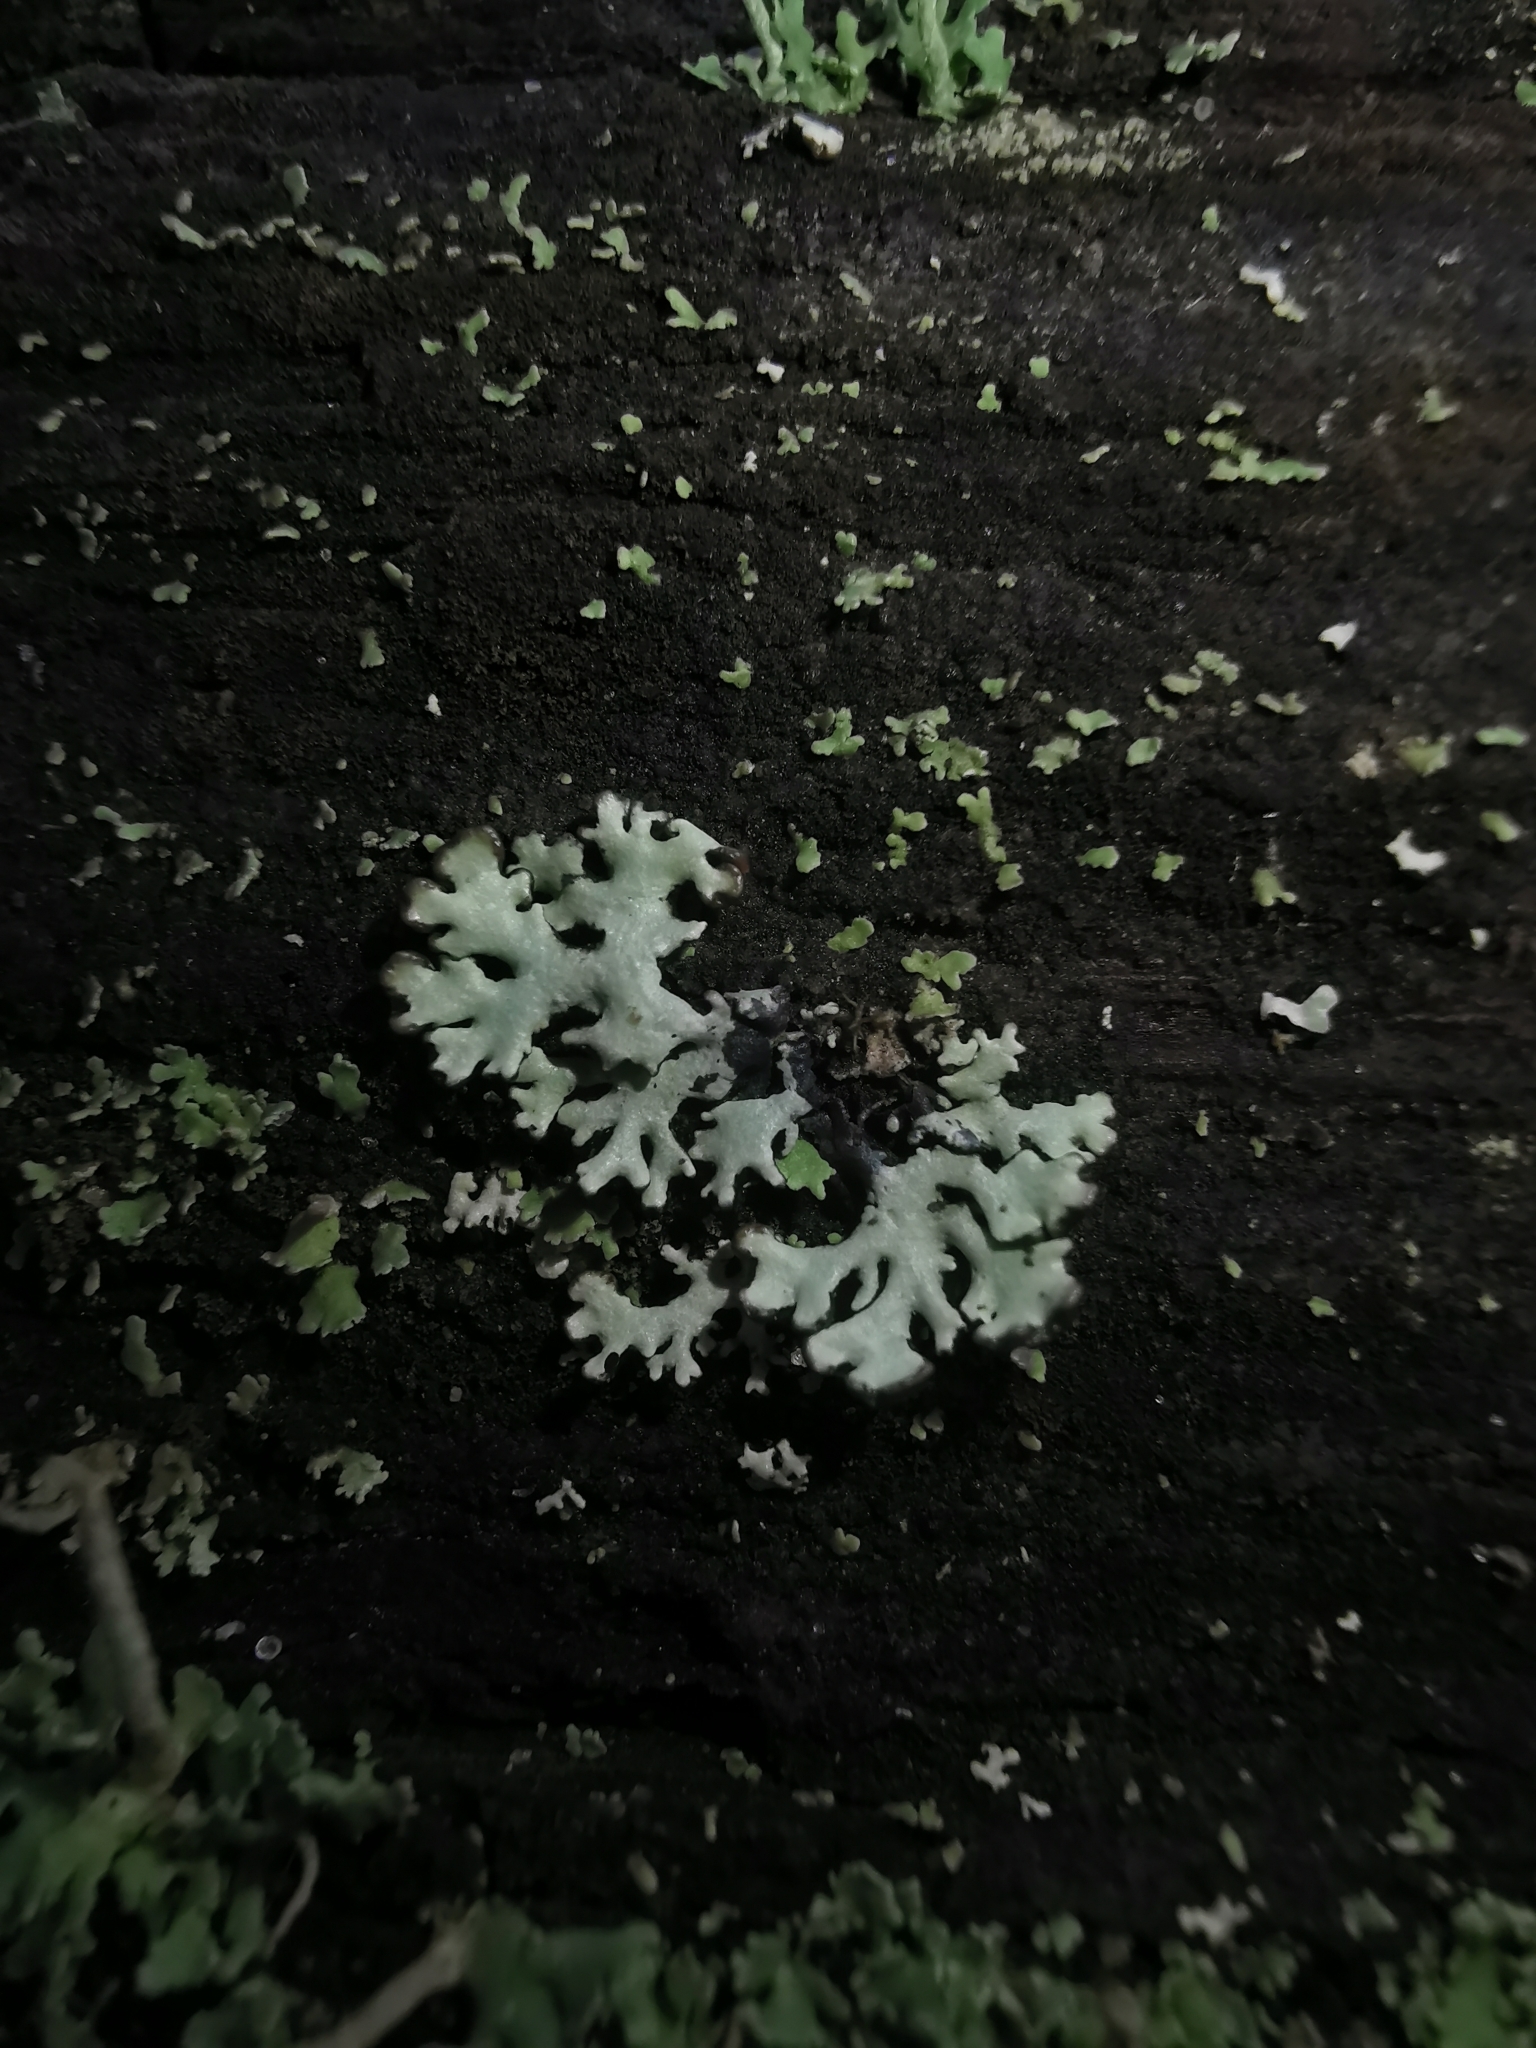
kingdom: Fungi
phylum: Ascomycota
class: Lecanoromycetes
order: Lecanorales
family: Parmeliaceae
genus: Hypogymnia
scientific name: Hypogymnia physodes
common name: Dark crottle
